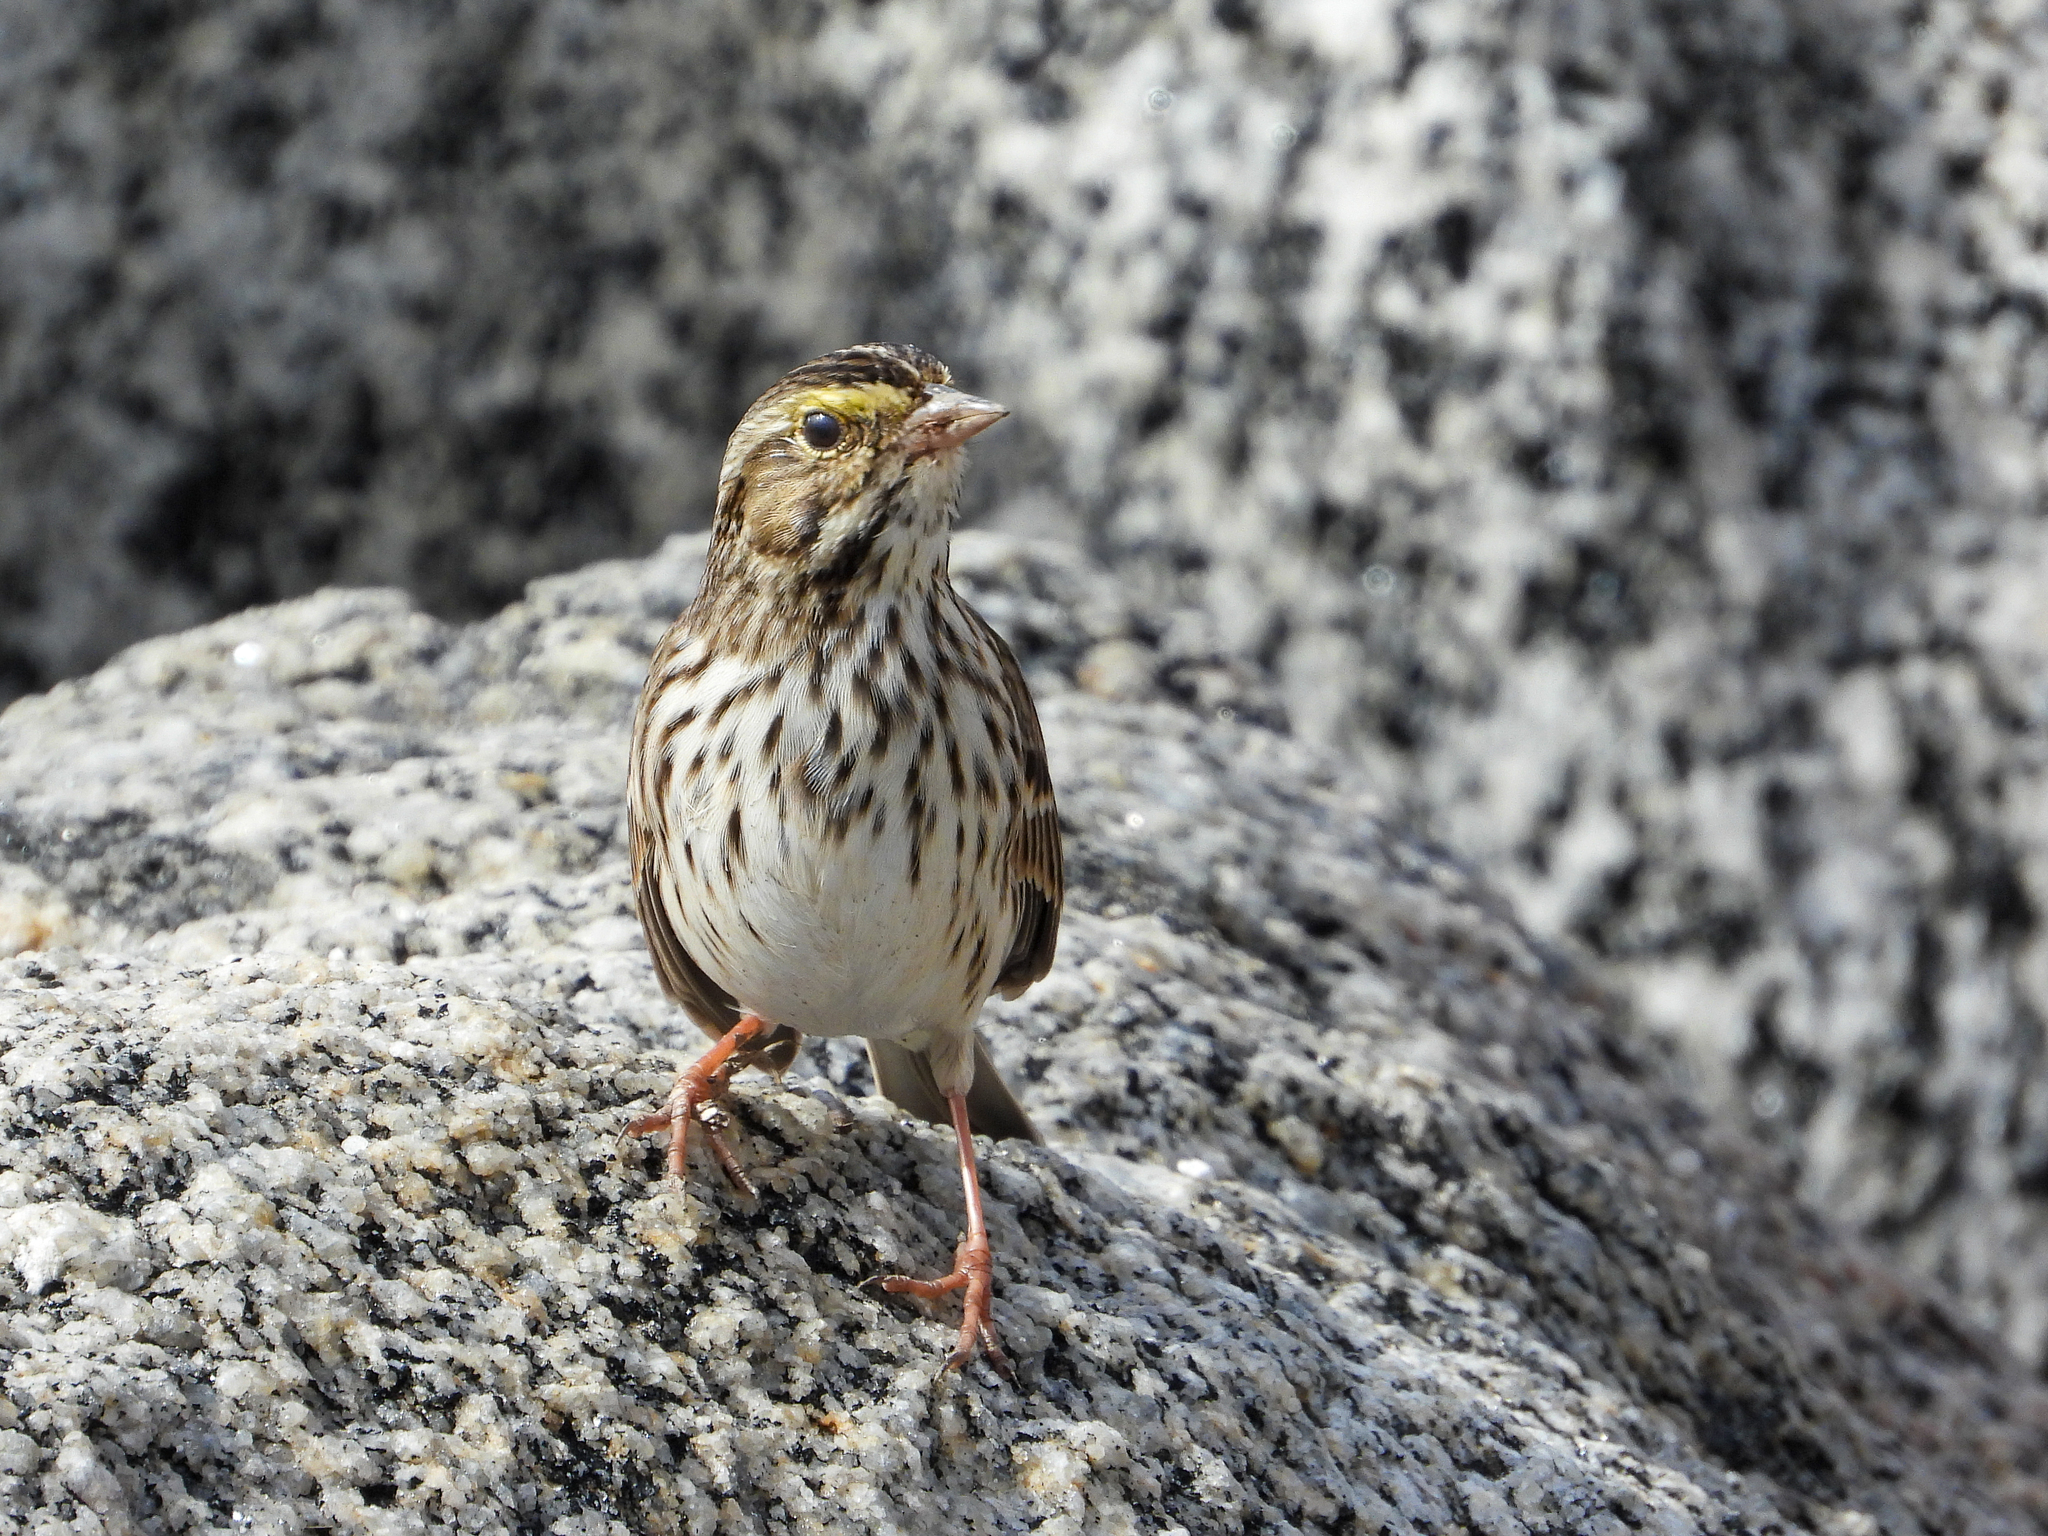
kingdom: Animalia
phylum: Chordata
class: Aves
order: Passeriformes
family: Passerellidae
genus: Passerculus
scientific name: Passerculus sandwichensis
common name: Savannah sparrow
